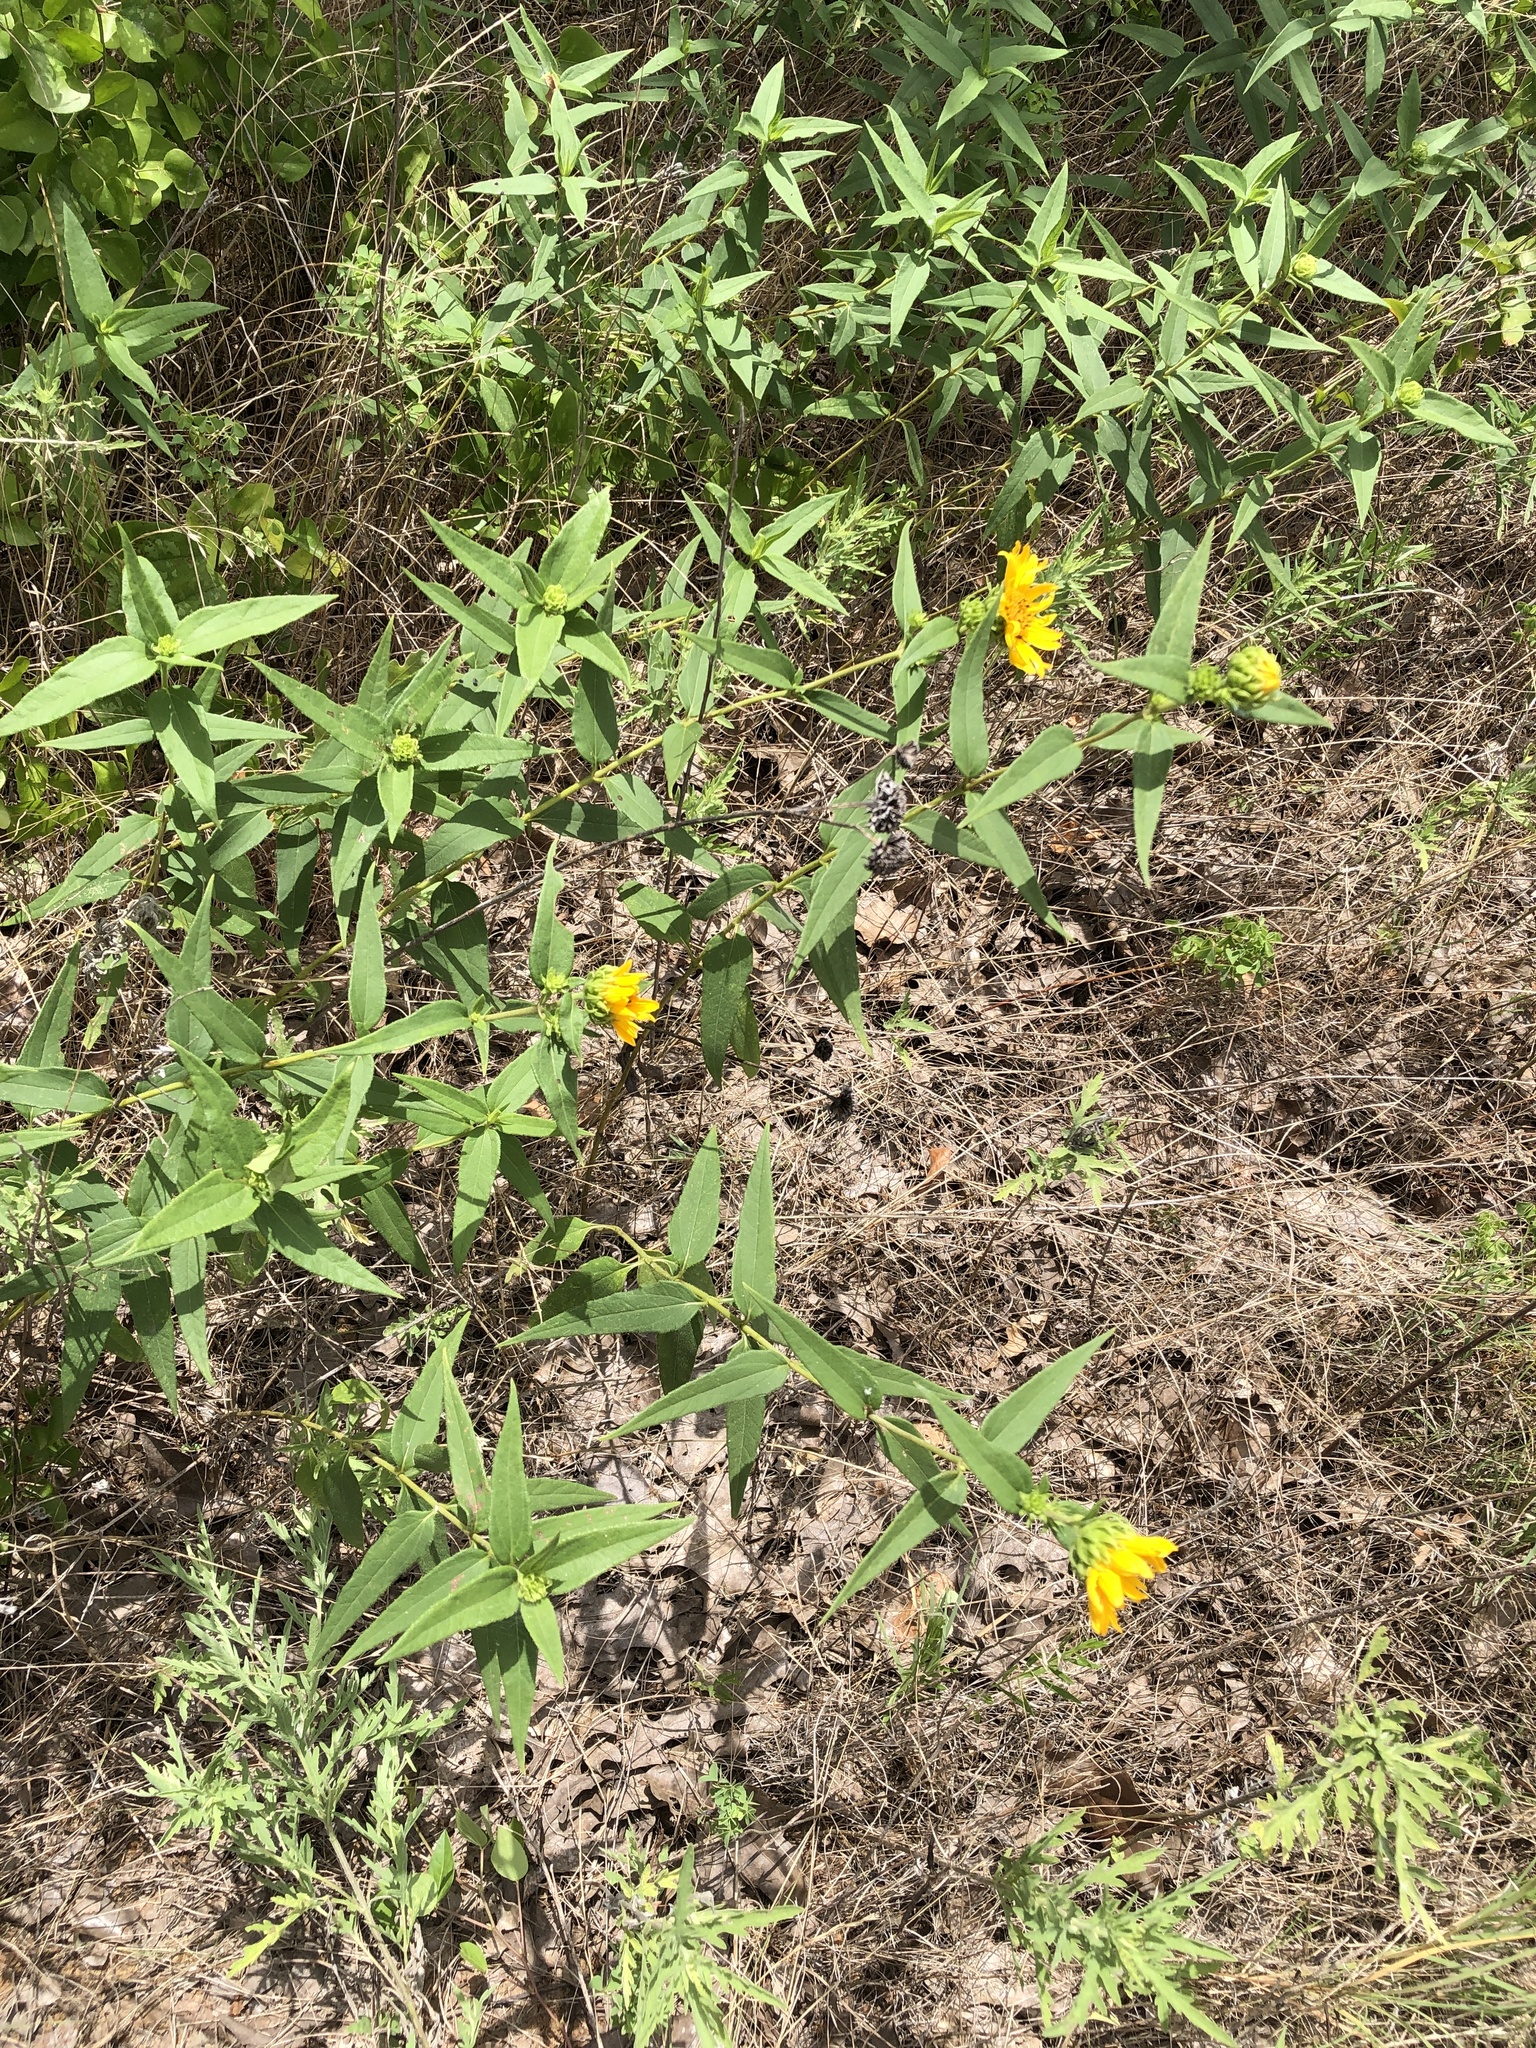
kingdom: Plantae
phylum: Tracheophyta
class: Magnoliopsida
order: Asterales
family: Asteraceae
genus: Helianthus
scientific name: Helianthus hirsutus
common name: Hairy sunflower
